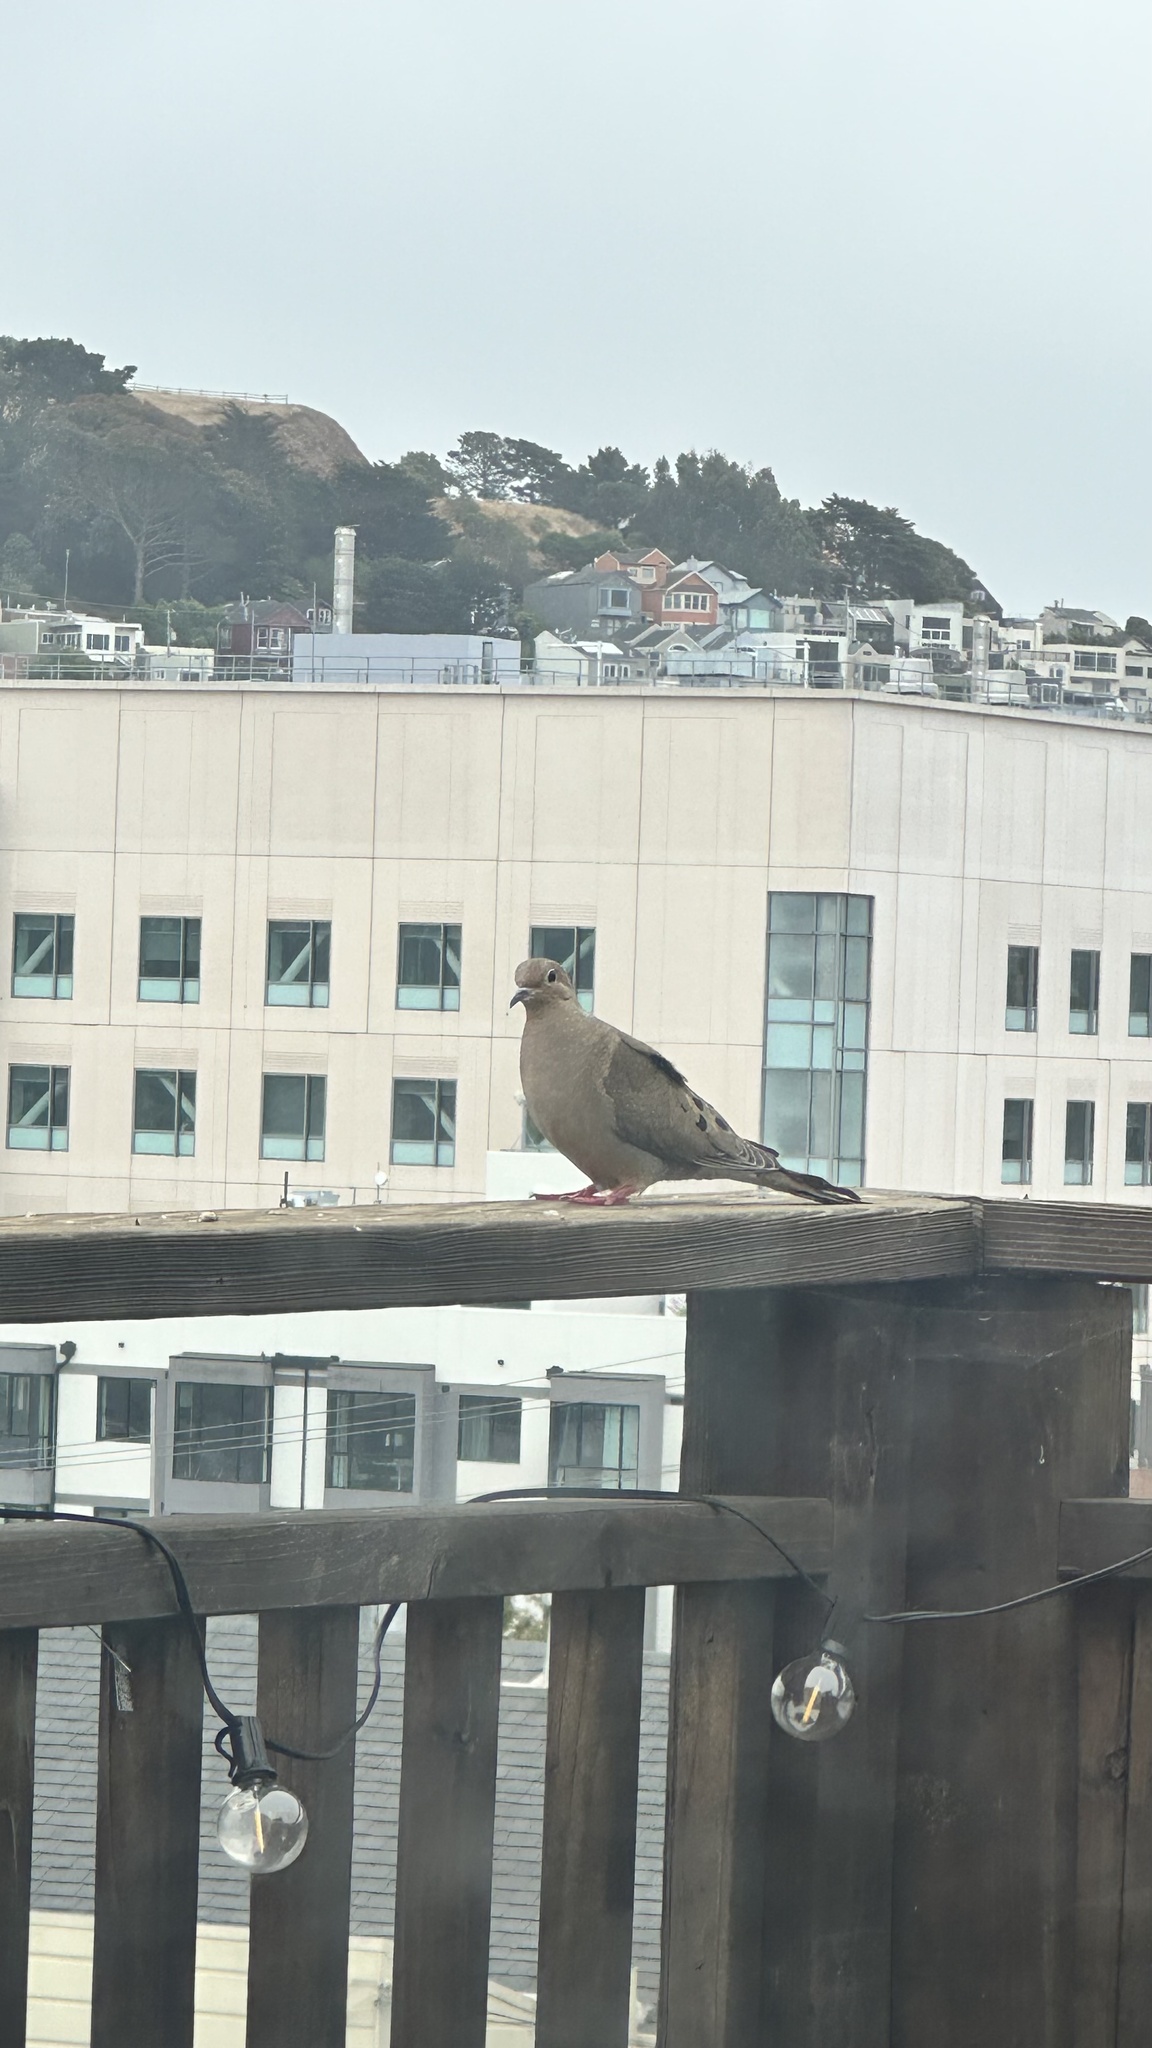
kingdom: Animalia
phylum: Chordata
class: Aves
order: Columbiformes
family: Columbidae
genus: Zenaida
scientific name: Zenaida macroura
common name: Mourning dove
